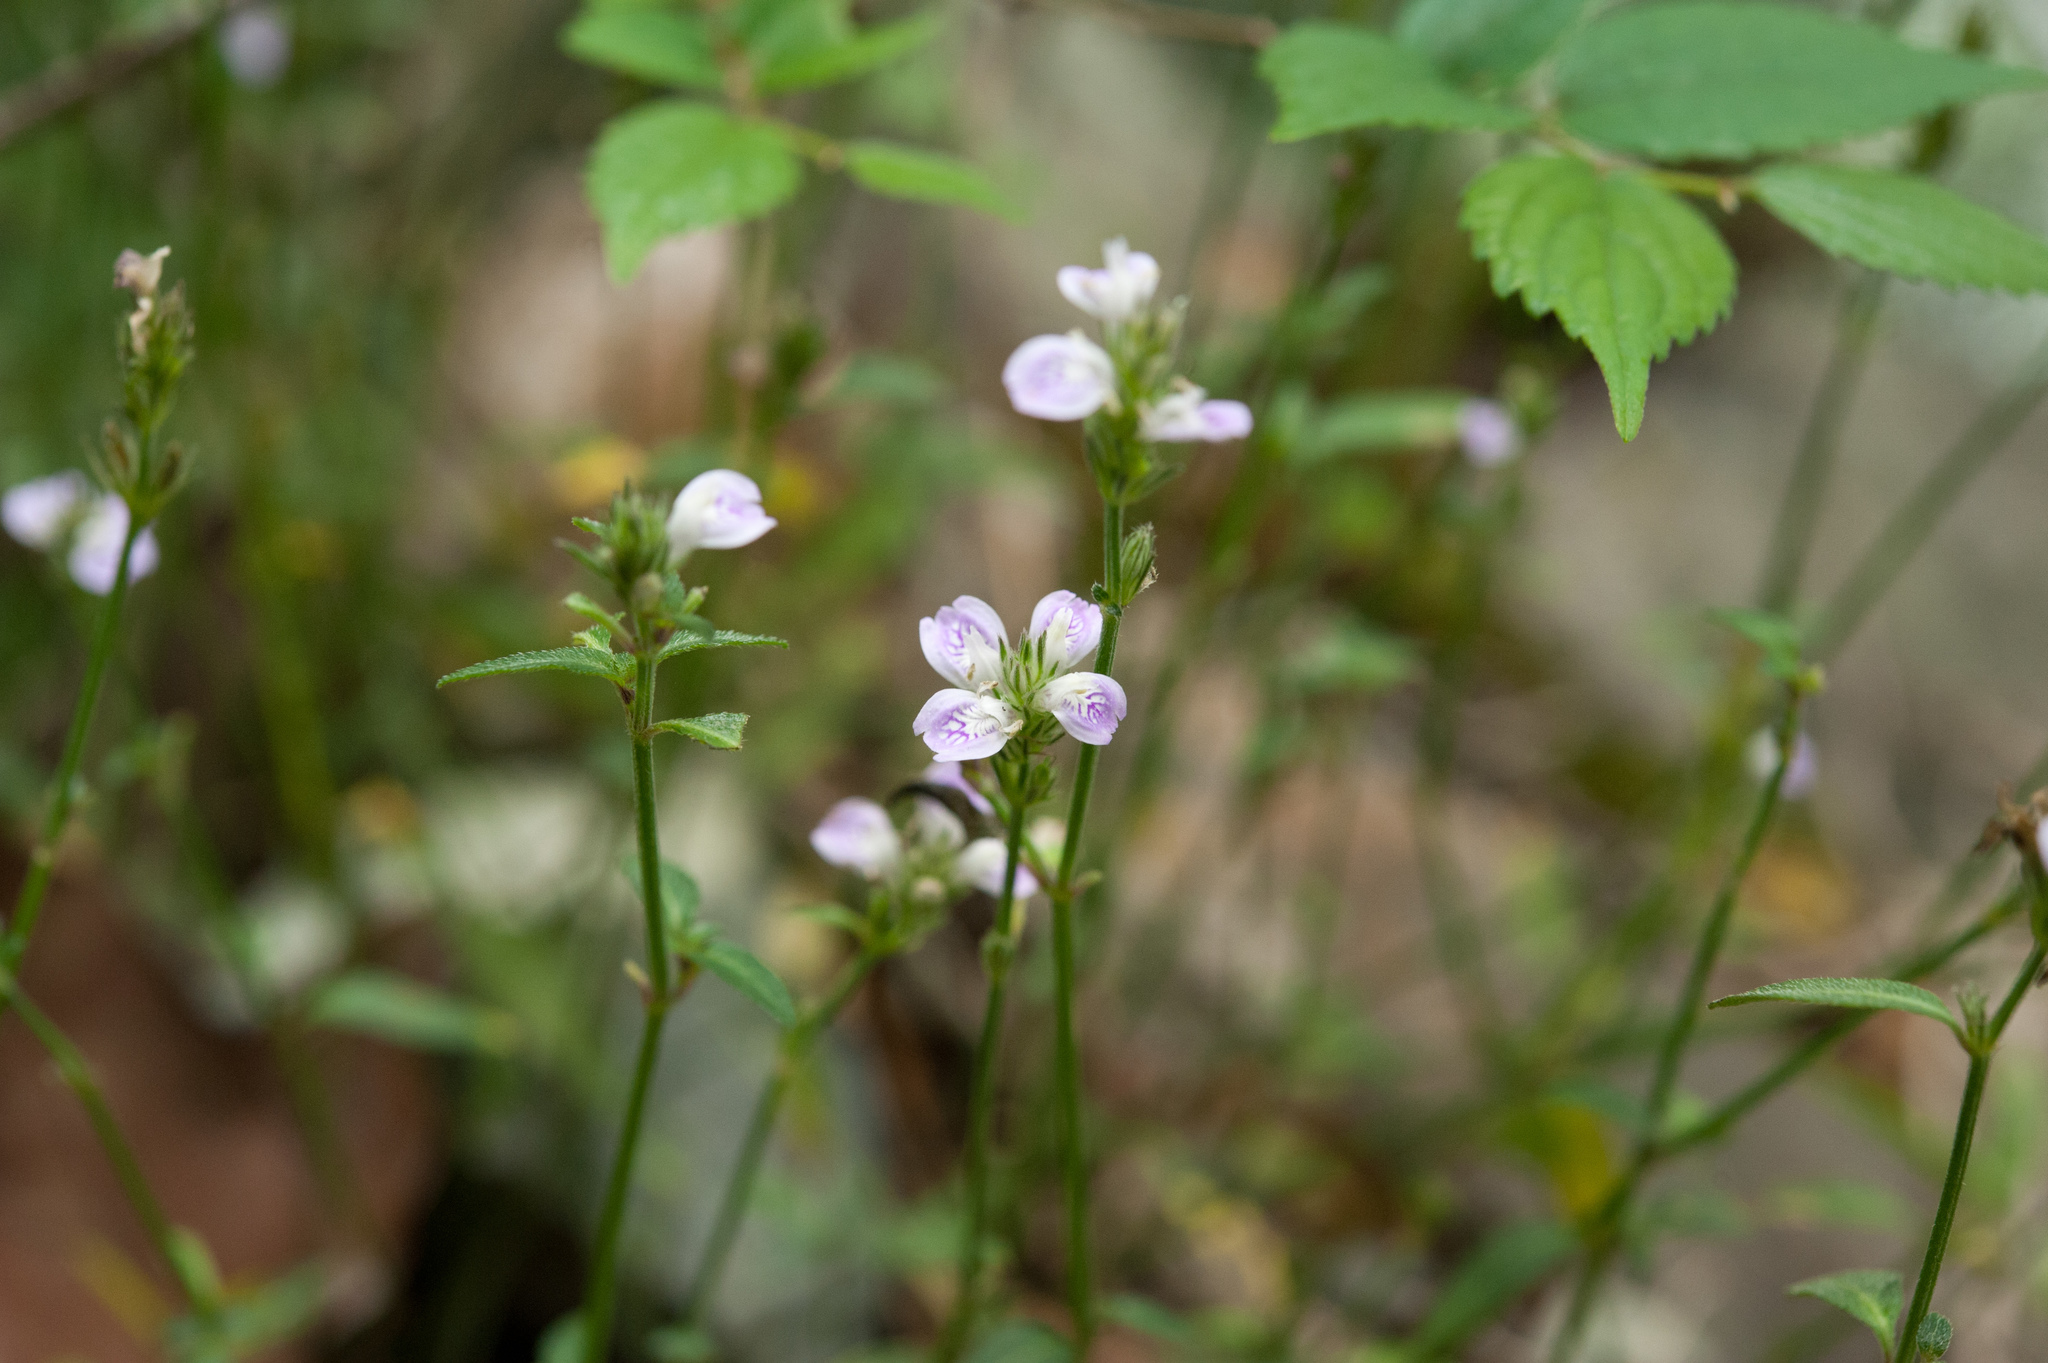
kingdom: Plantae
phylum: Tracheophyta
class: Magnoliopsida
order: Lamiales
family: Acanthaceae
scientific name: Acanthaceae
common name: Acanthaceae
